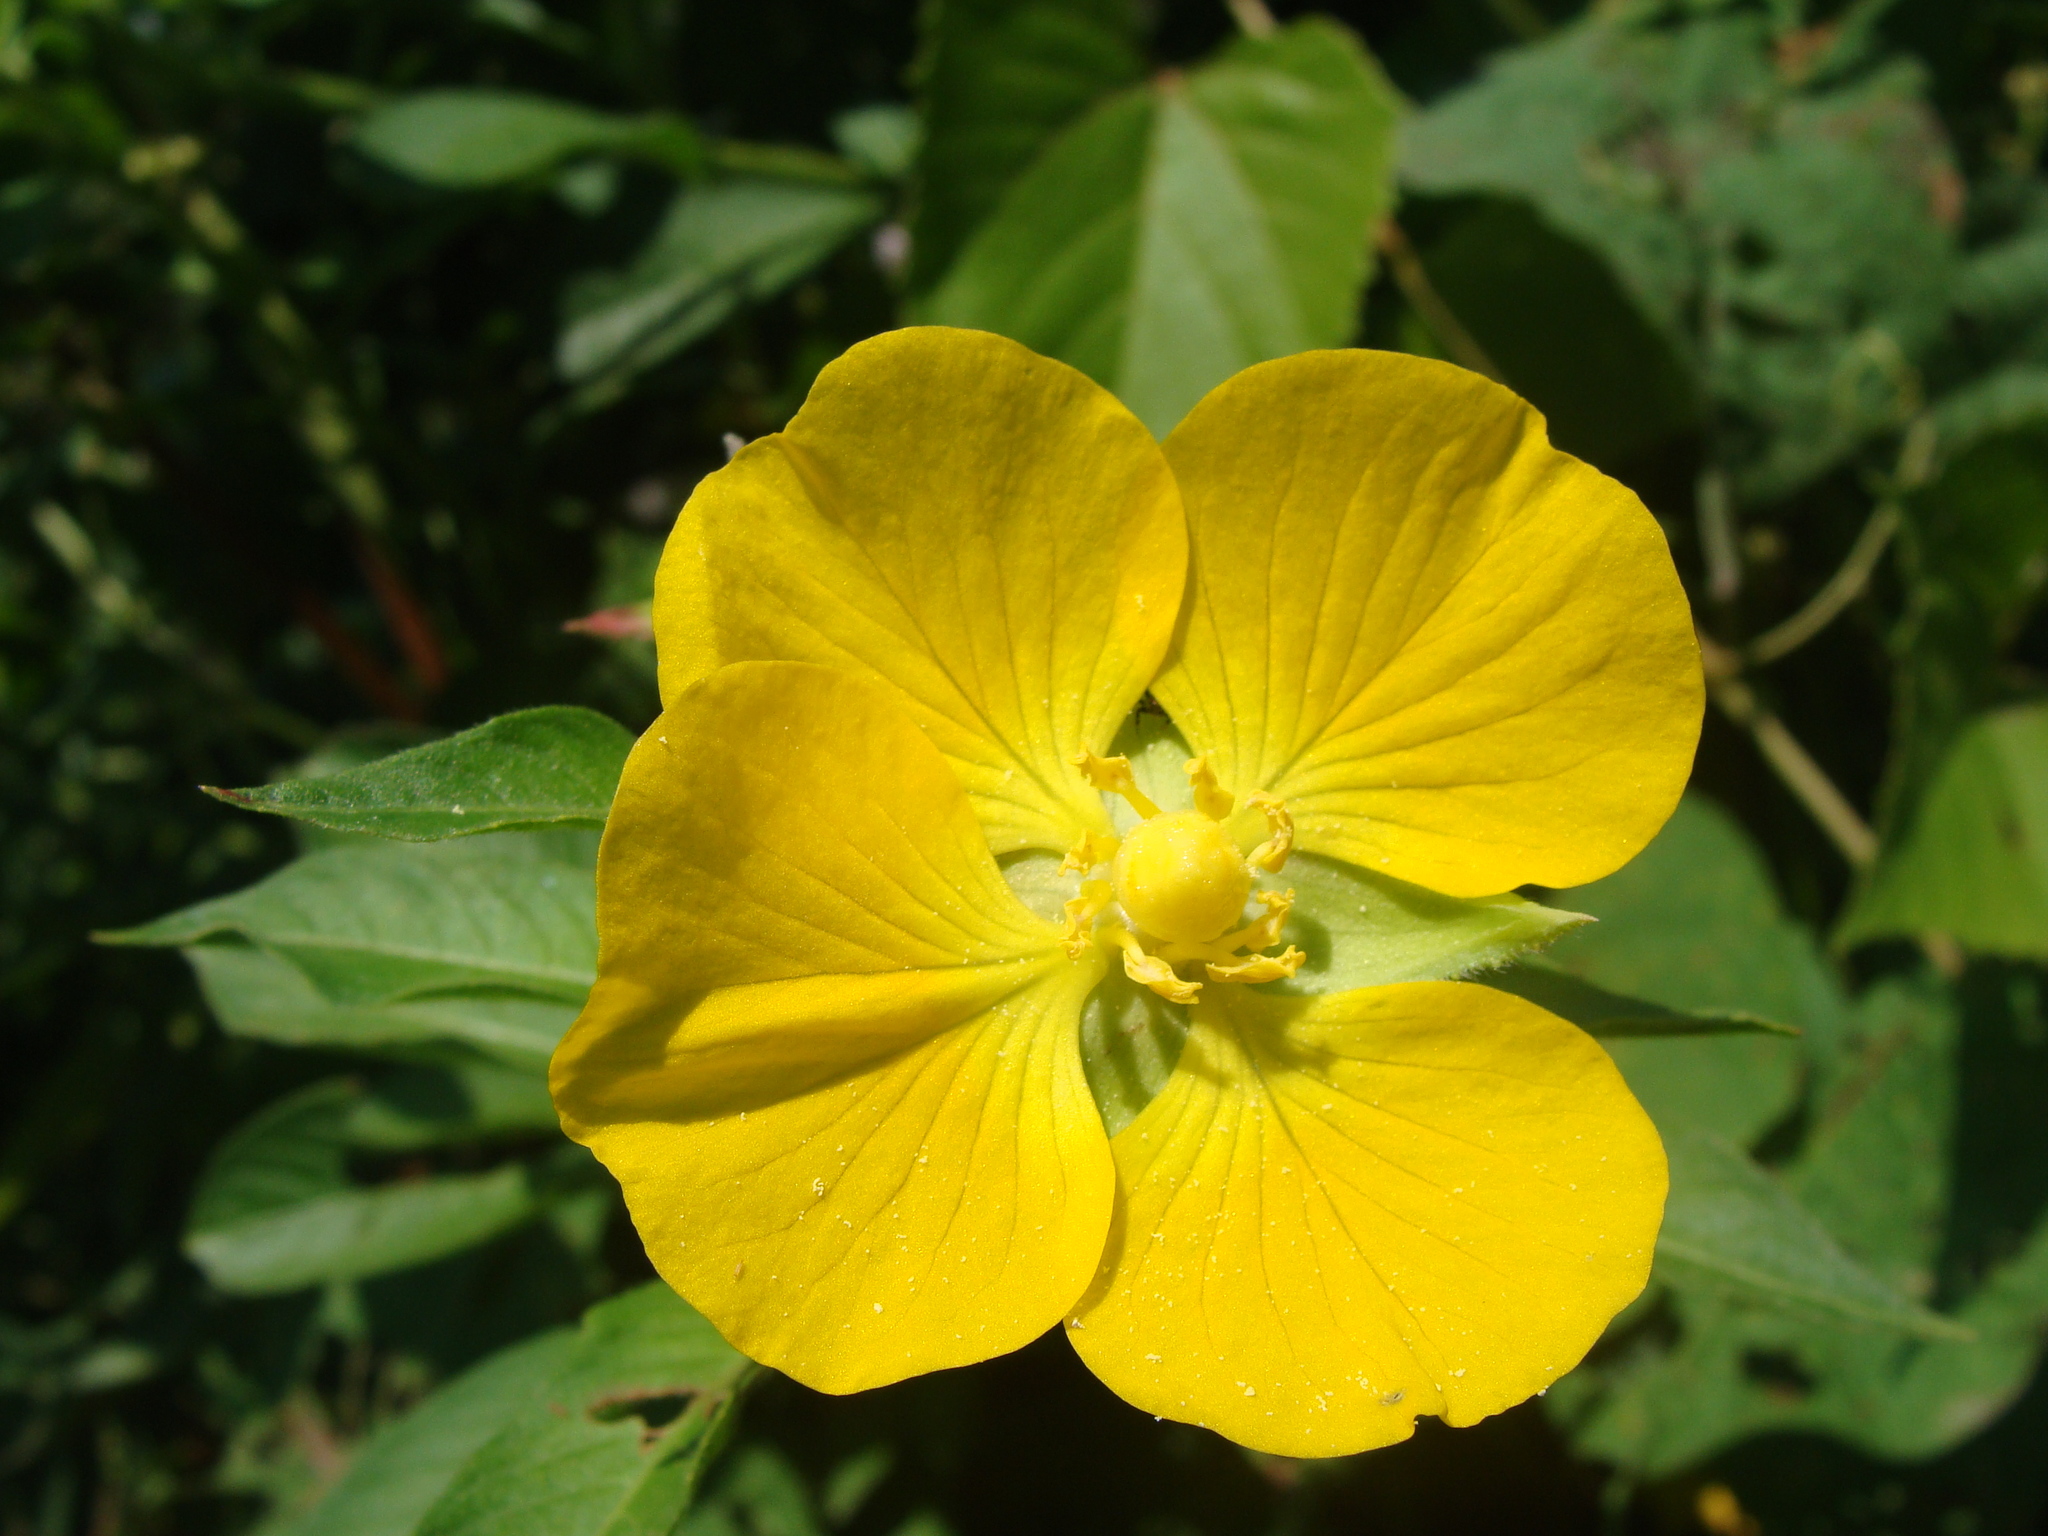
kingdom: Plantae
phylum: Tracheophyta
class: Magnoliopsida
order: Myrtales
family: Onagraceae
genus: Ludwigia
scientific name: Ludwigia peruviana
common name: Peruvian primrose-willow
